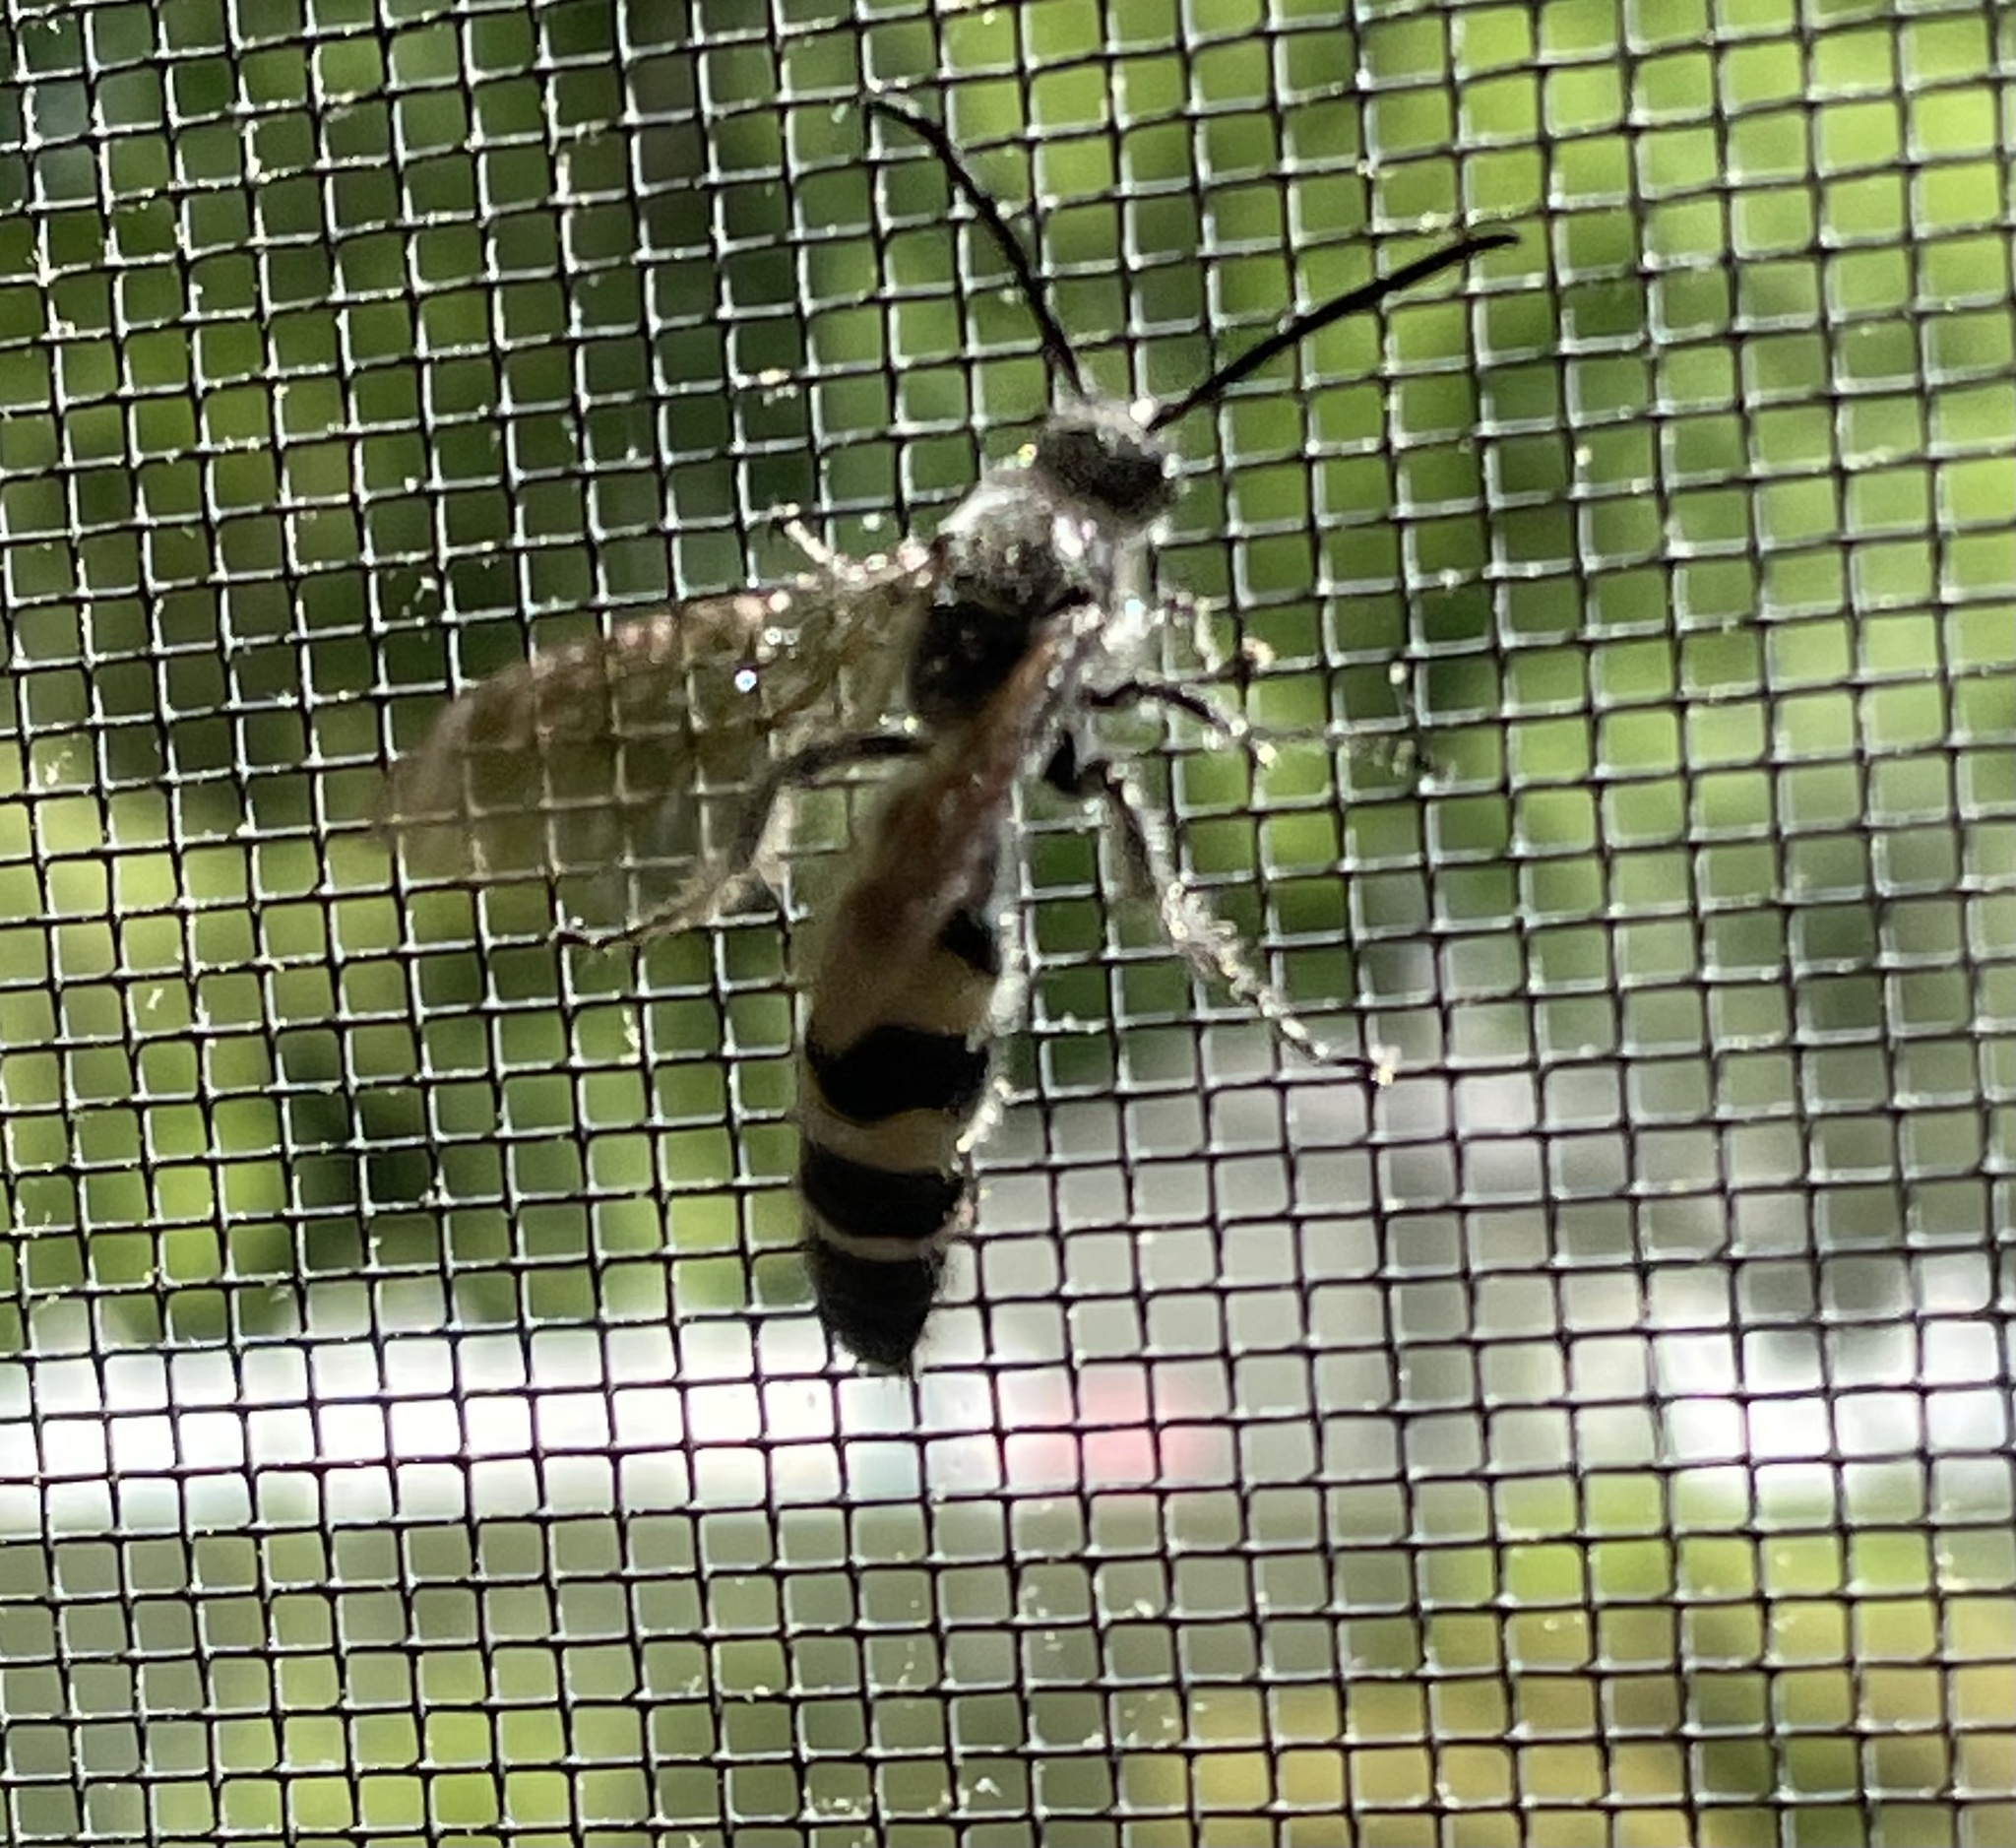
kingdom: Animalia
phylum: Arthropoda
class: Insecta
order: Hymenoptera
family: Scoliidae
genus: Dielis
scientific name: Dielis
